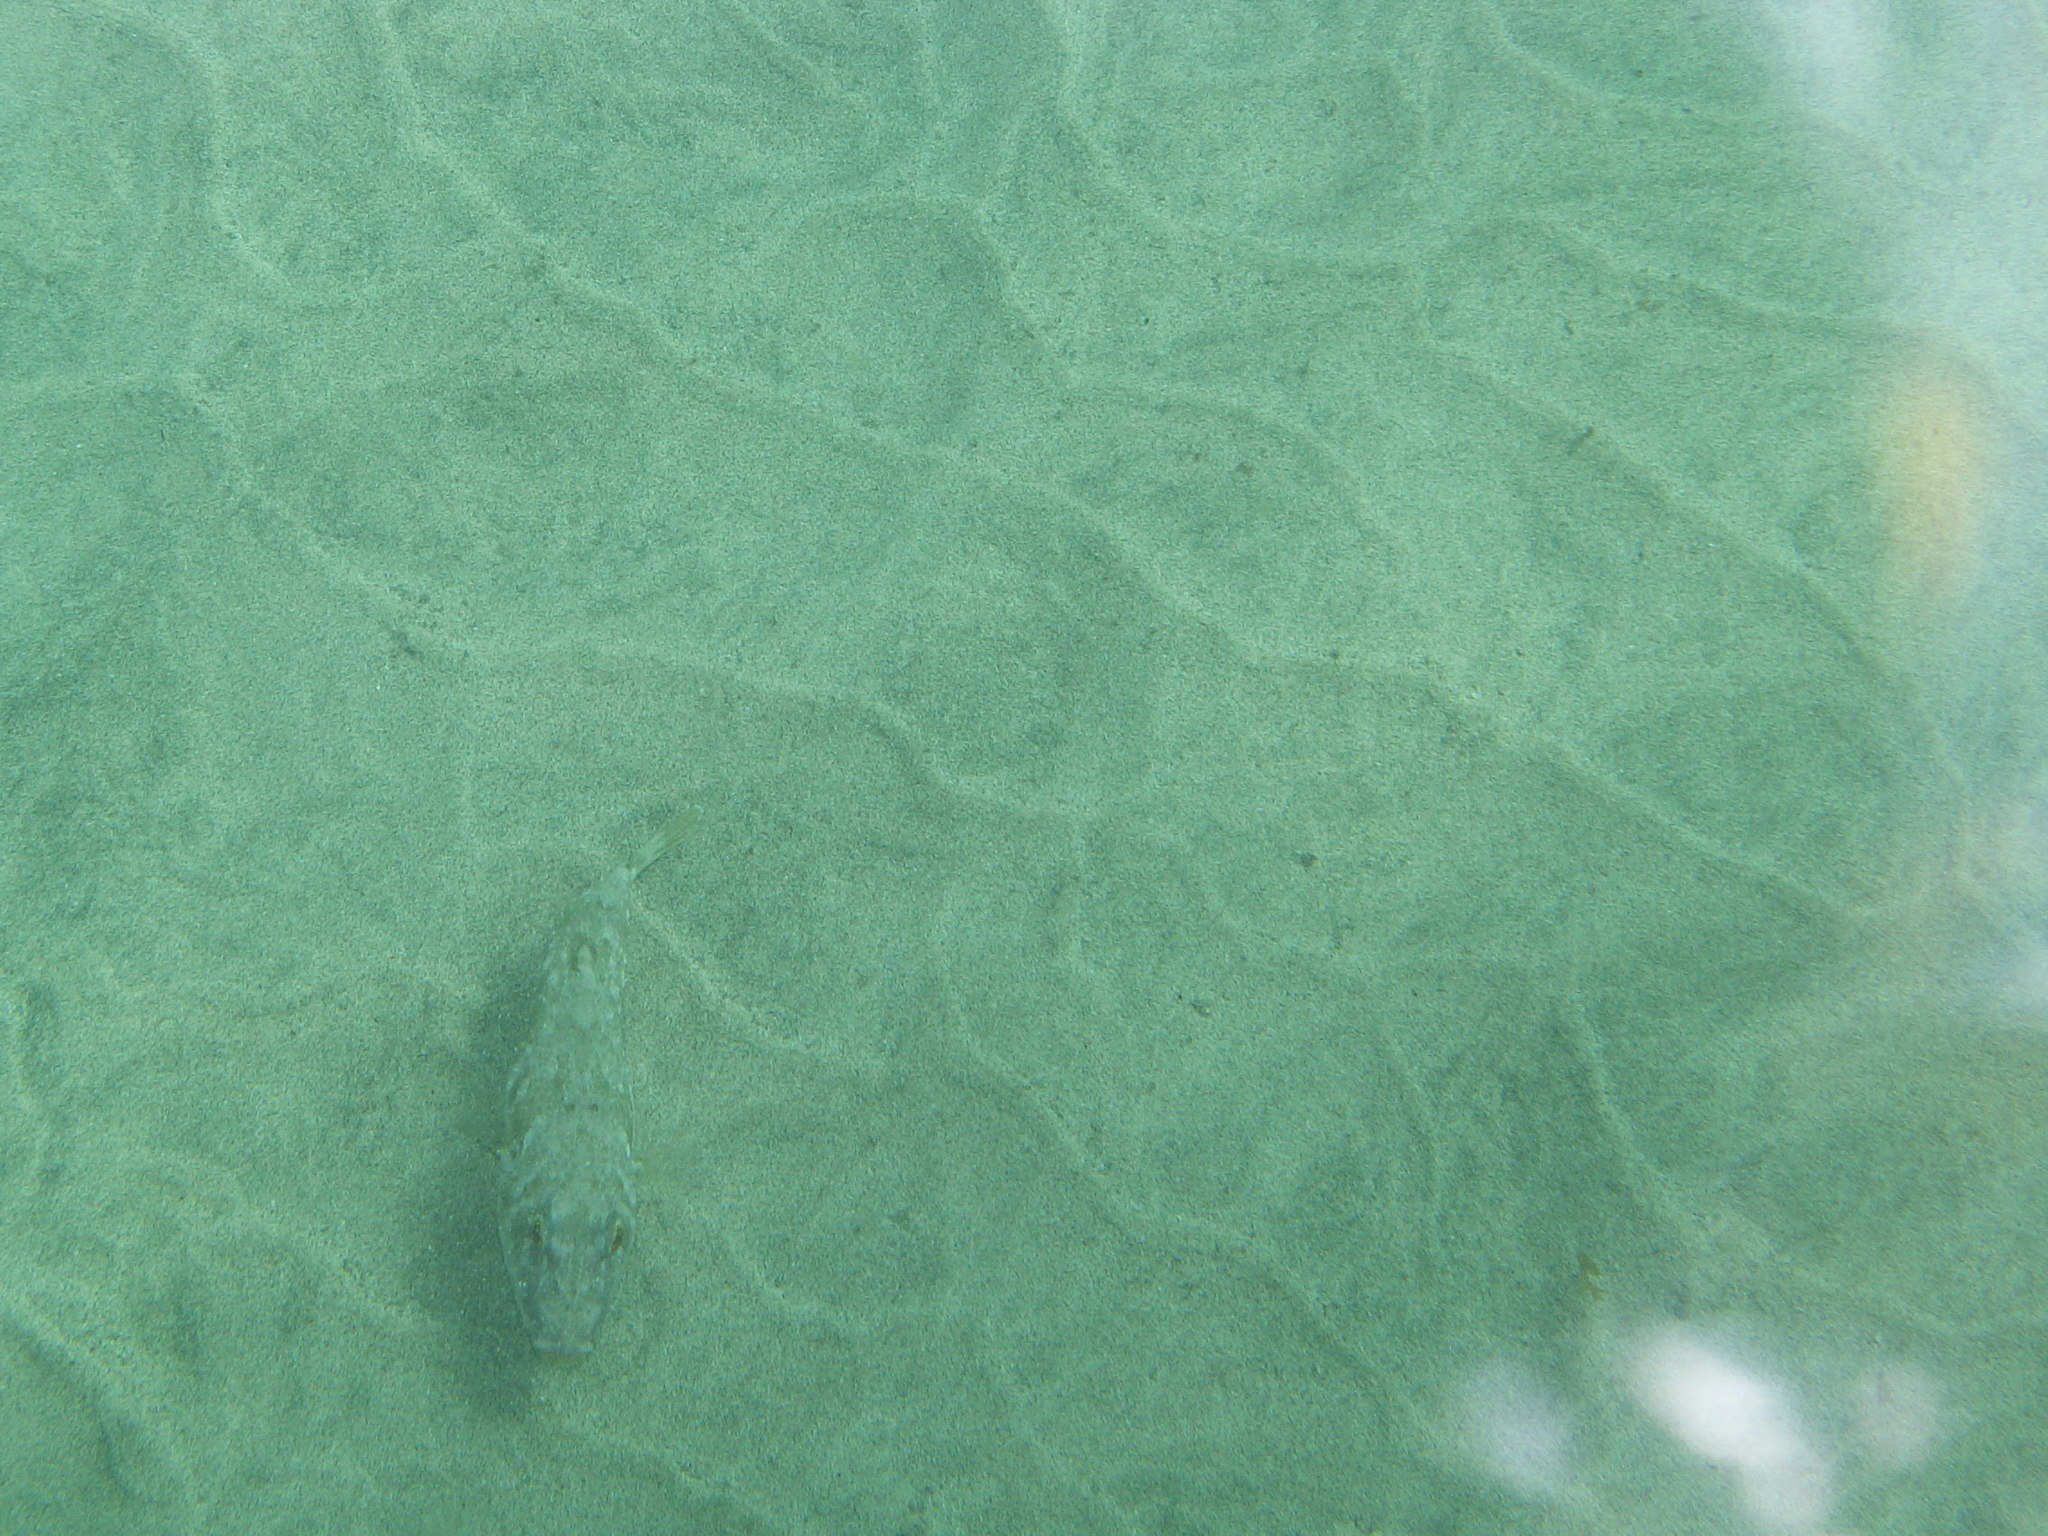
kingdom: Animalia
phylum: Chordata
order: Tetraodontiformes
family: Tetraodontidae
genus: Sphoeroides
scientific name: Sphoeroides marmoratus
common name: Guinean puffer
